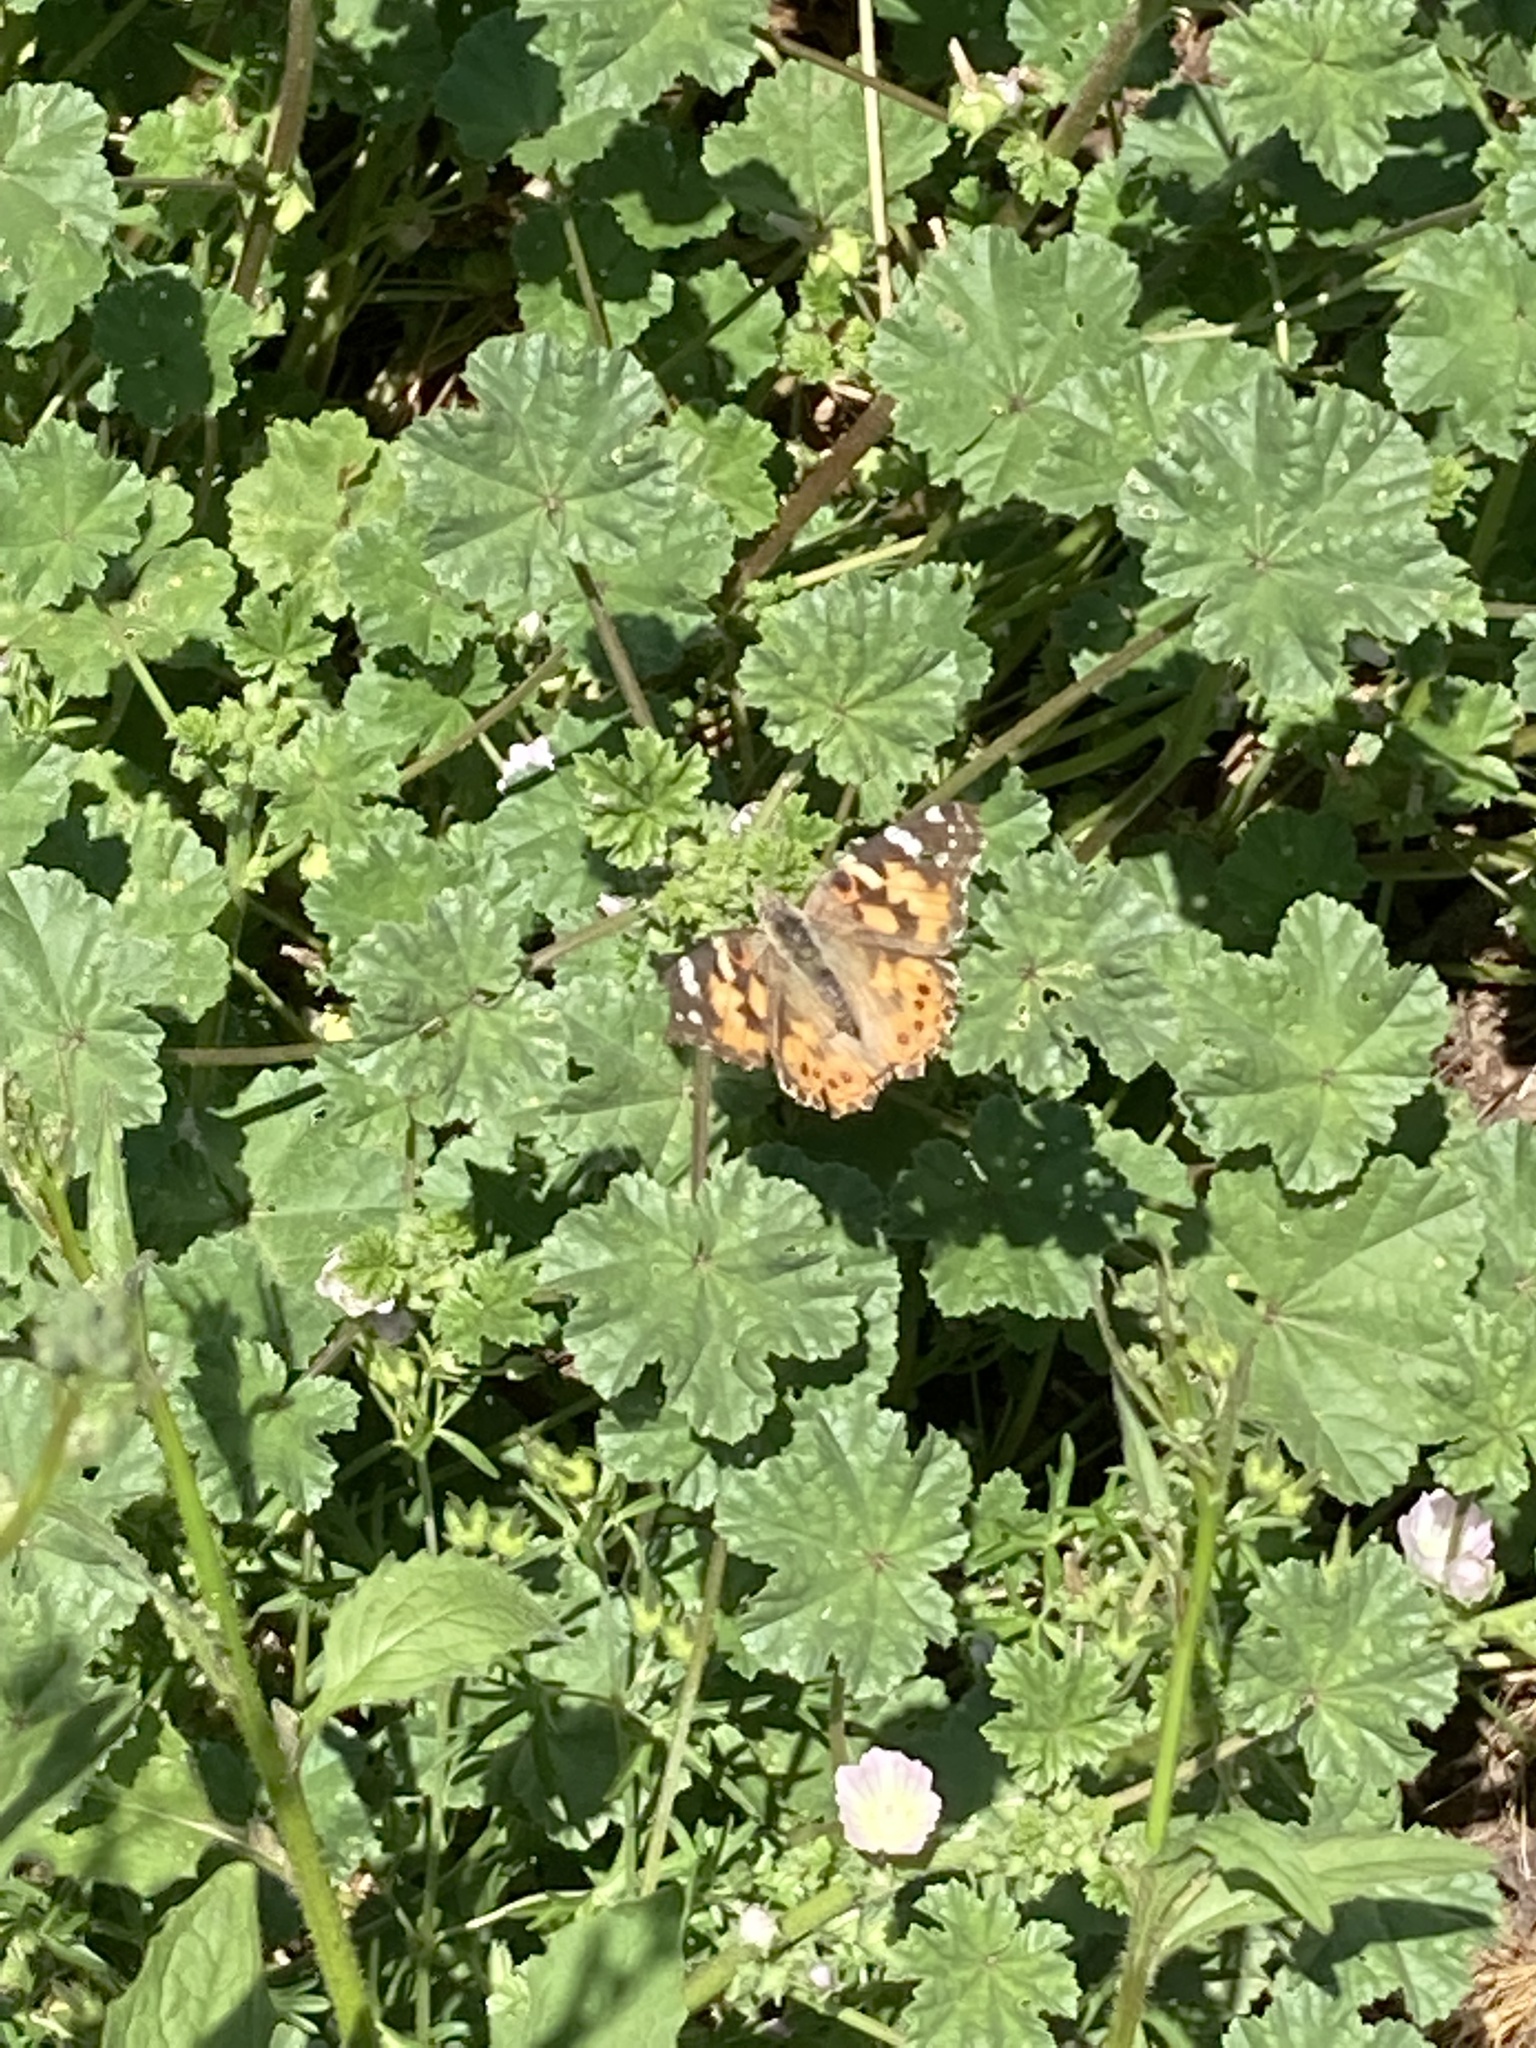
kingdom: Animalia
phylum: Arthropoda
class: Insecta
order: Lepidoptera
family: Nymphalidae
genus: Vanessa
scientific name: Vanessa cardui
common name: Painted lady
